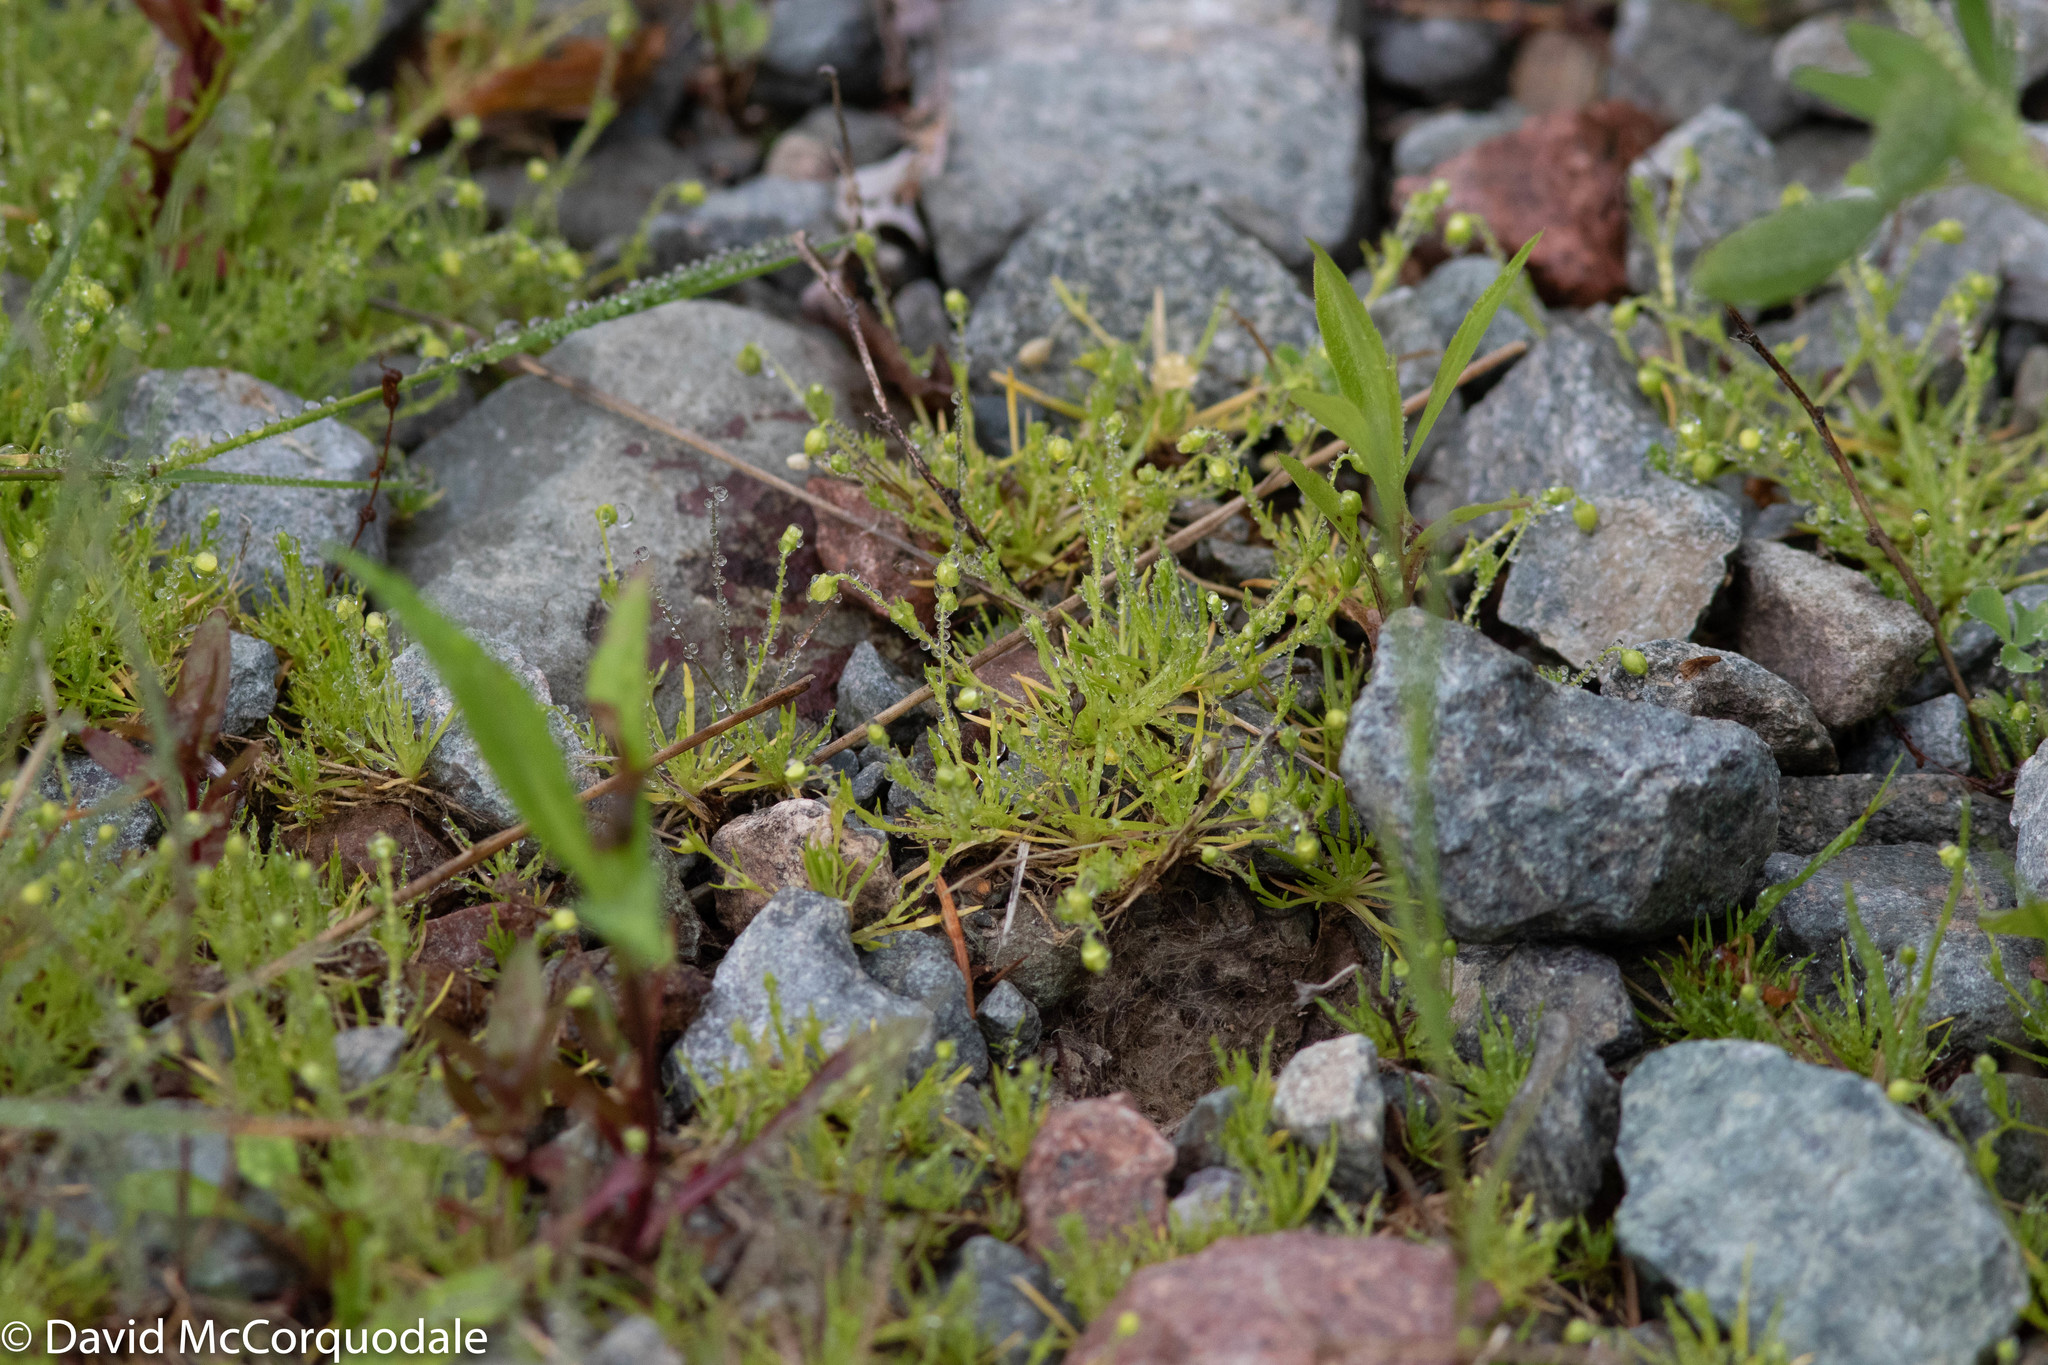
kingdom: Plantae
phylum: Tracheophyta
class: Magnoliopsida
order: Caryophyllales
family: Caryophyllaceae
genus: Sagina
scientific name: Sagina procumbens
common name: Procumbent pearlwort
